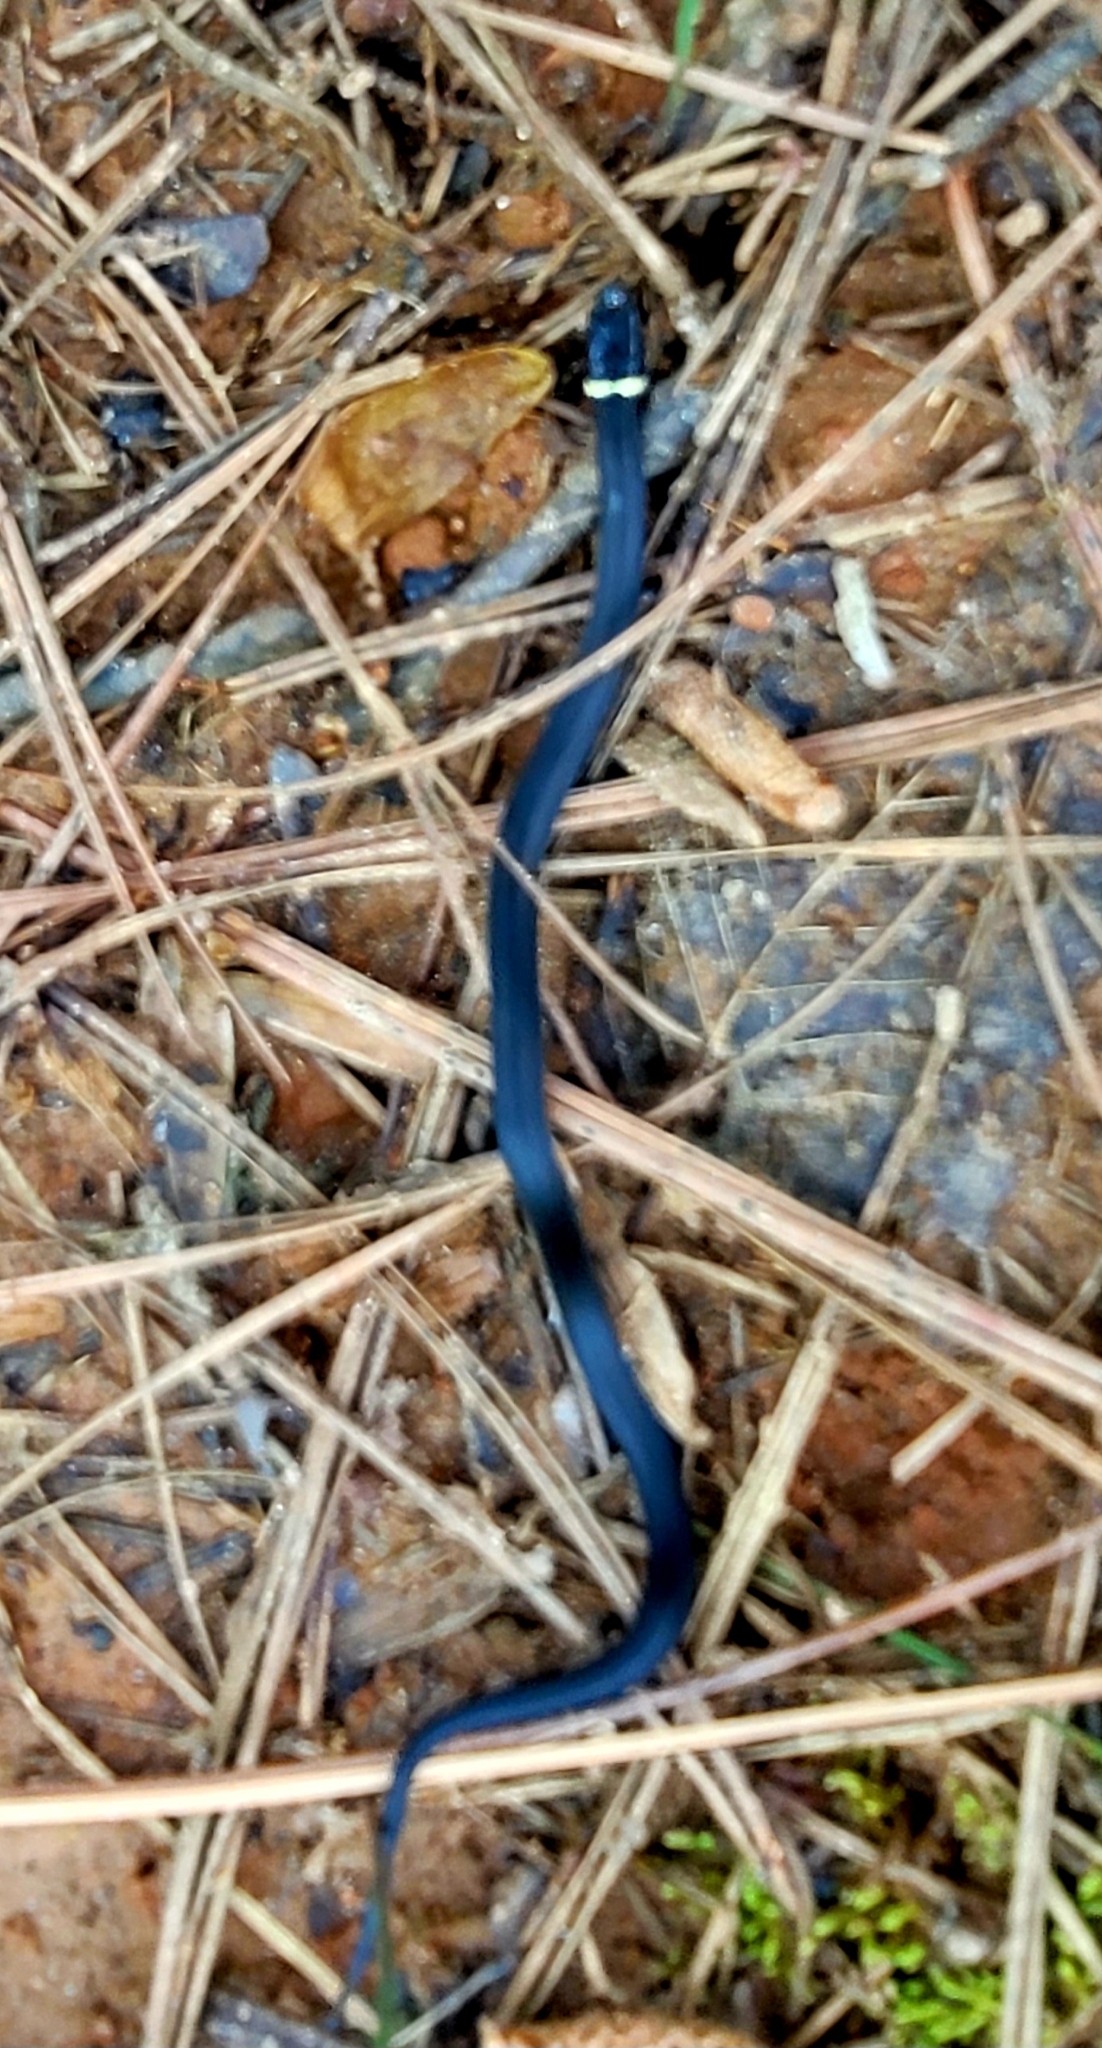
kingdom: Animalia
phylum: Chordata
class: Squamata
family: Colubridae
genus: Diadophis
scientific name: Diadophis punctatus
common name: Ringneck snake
